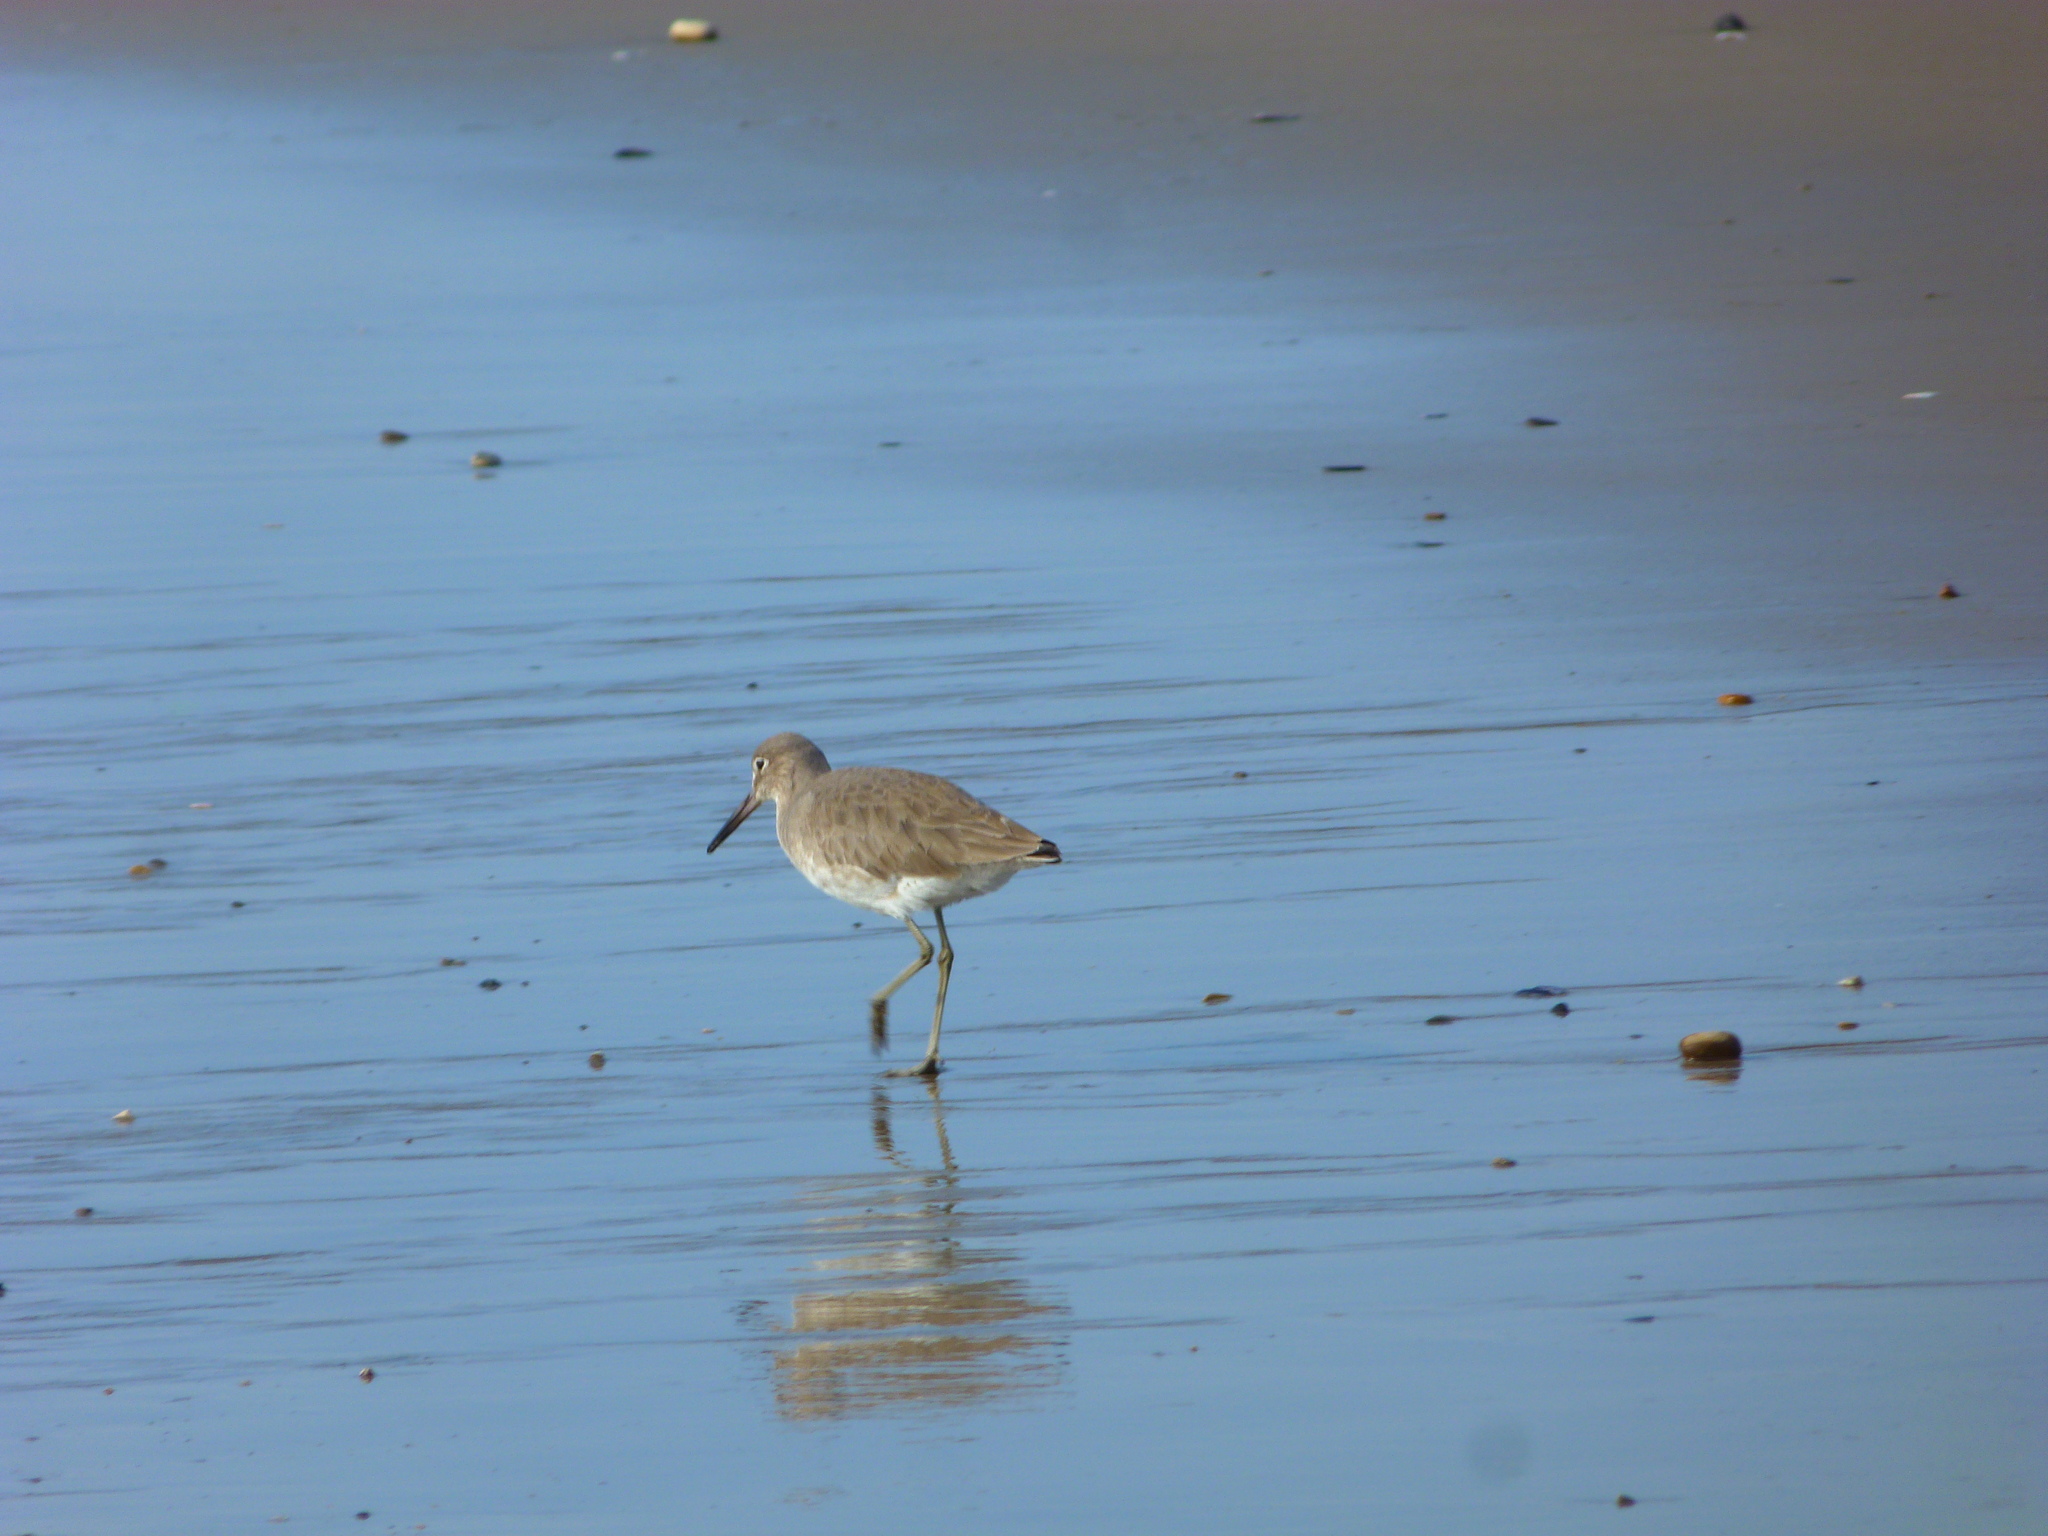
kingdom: Animalia
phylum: Chordata
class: Aves
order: Charadriiformes
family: Scolopacidae
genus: Tringa
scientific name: Tringa semipalmata
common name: Willet
